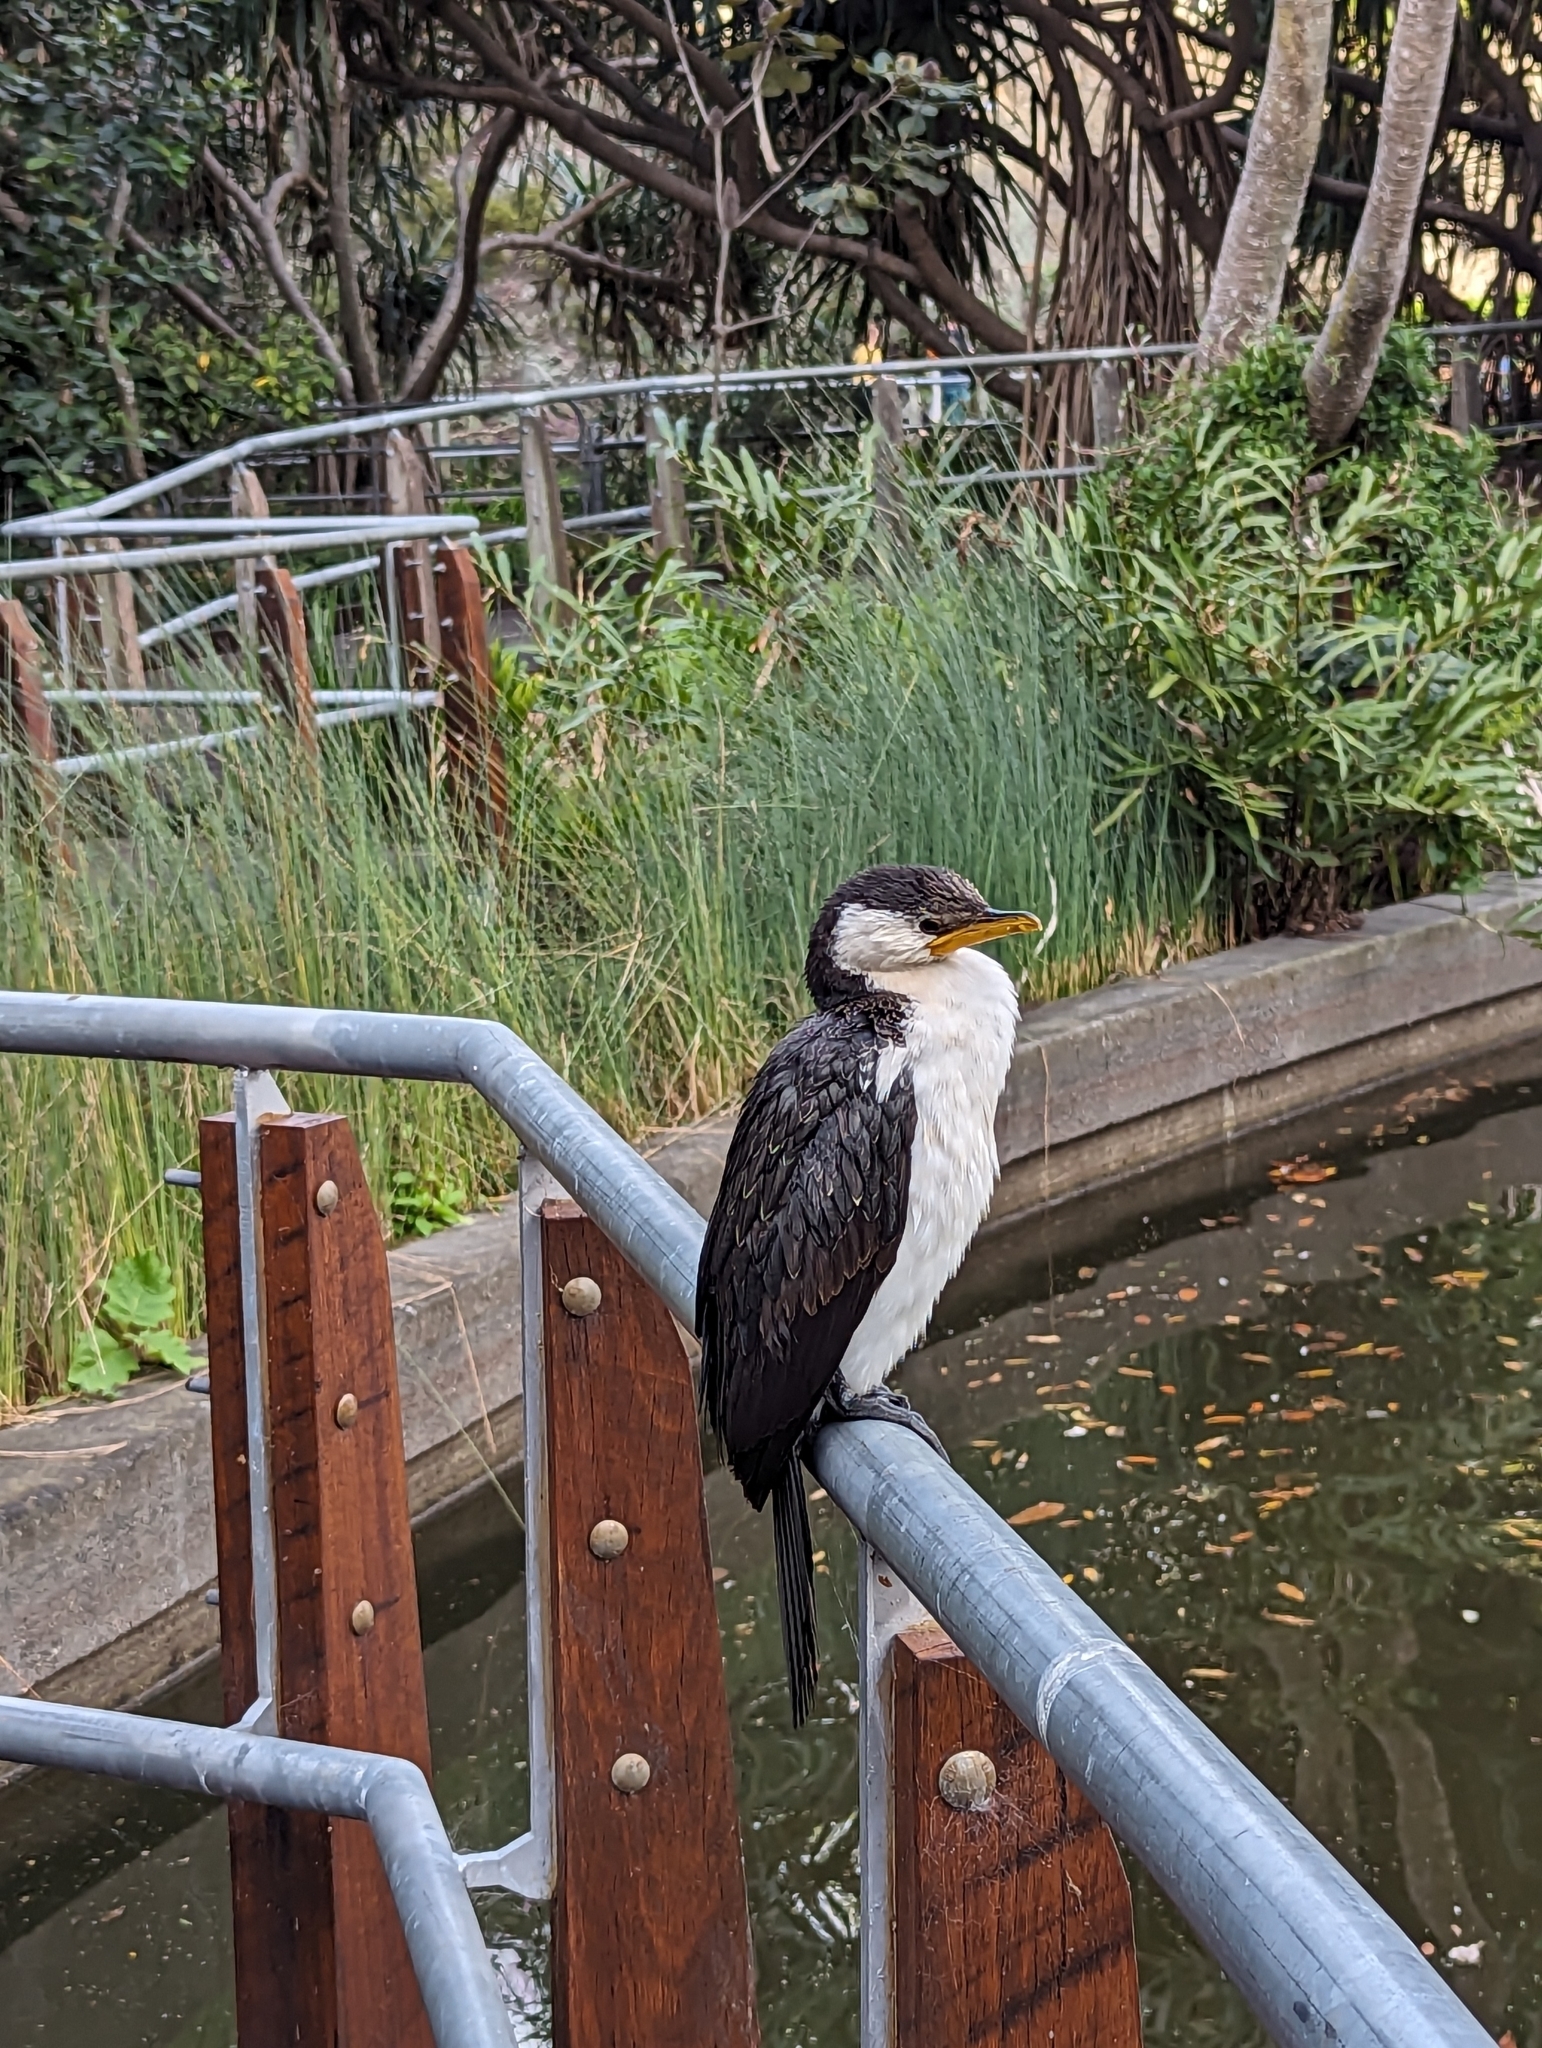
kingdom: Animalia
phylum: Chordata
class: Aves
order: Suliformes
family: Phalacrocoracidae
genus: Microcarbo
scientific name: Microcarbo melanoleucos
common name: Little pied cormorant
